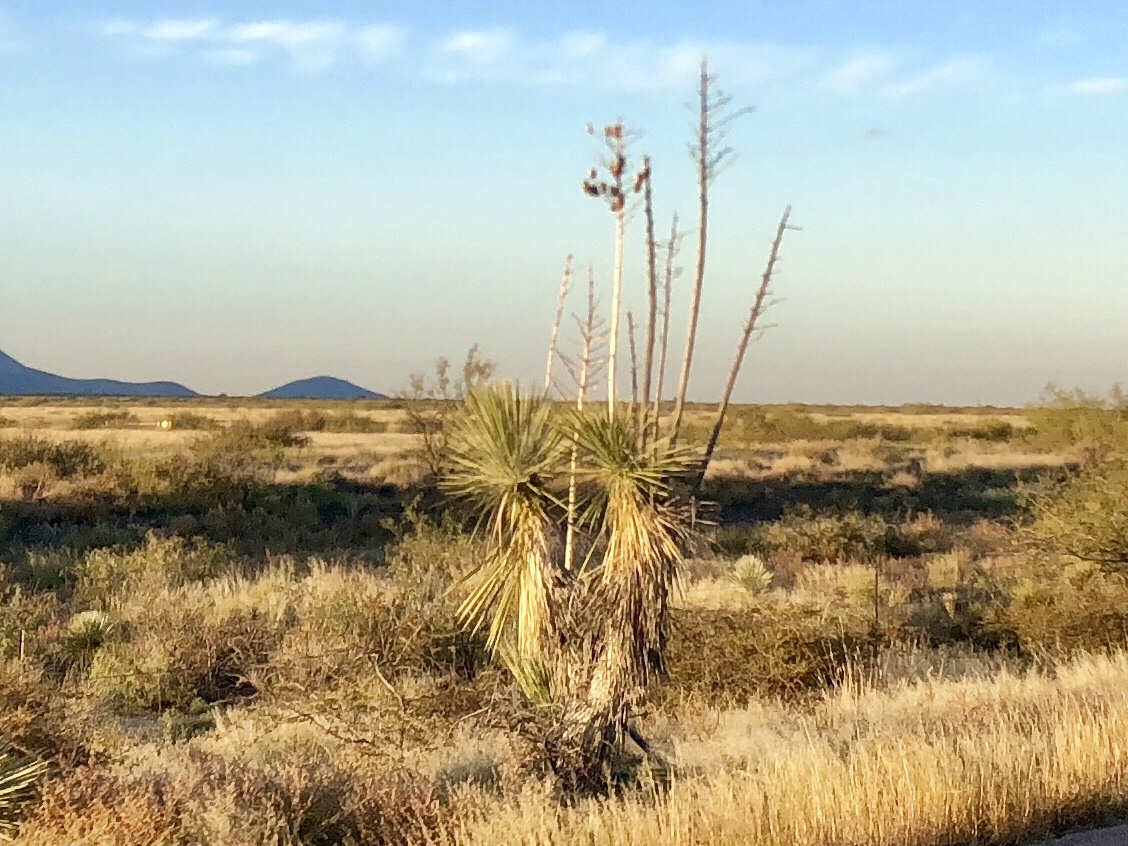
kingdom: Plantae
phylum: Tracheophyta
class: Liliopsida
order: Asparagales
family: Asparagaceae
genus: Yucca
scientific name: Yucca elata
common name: Palmella
